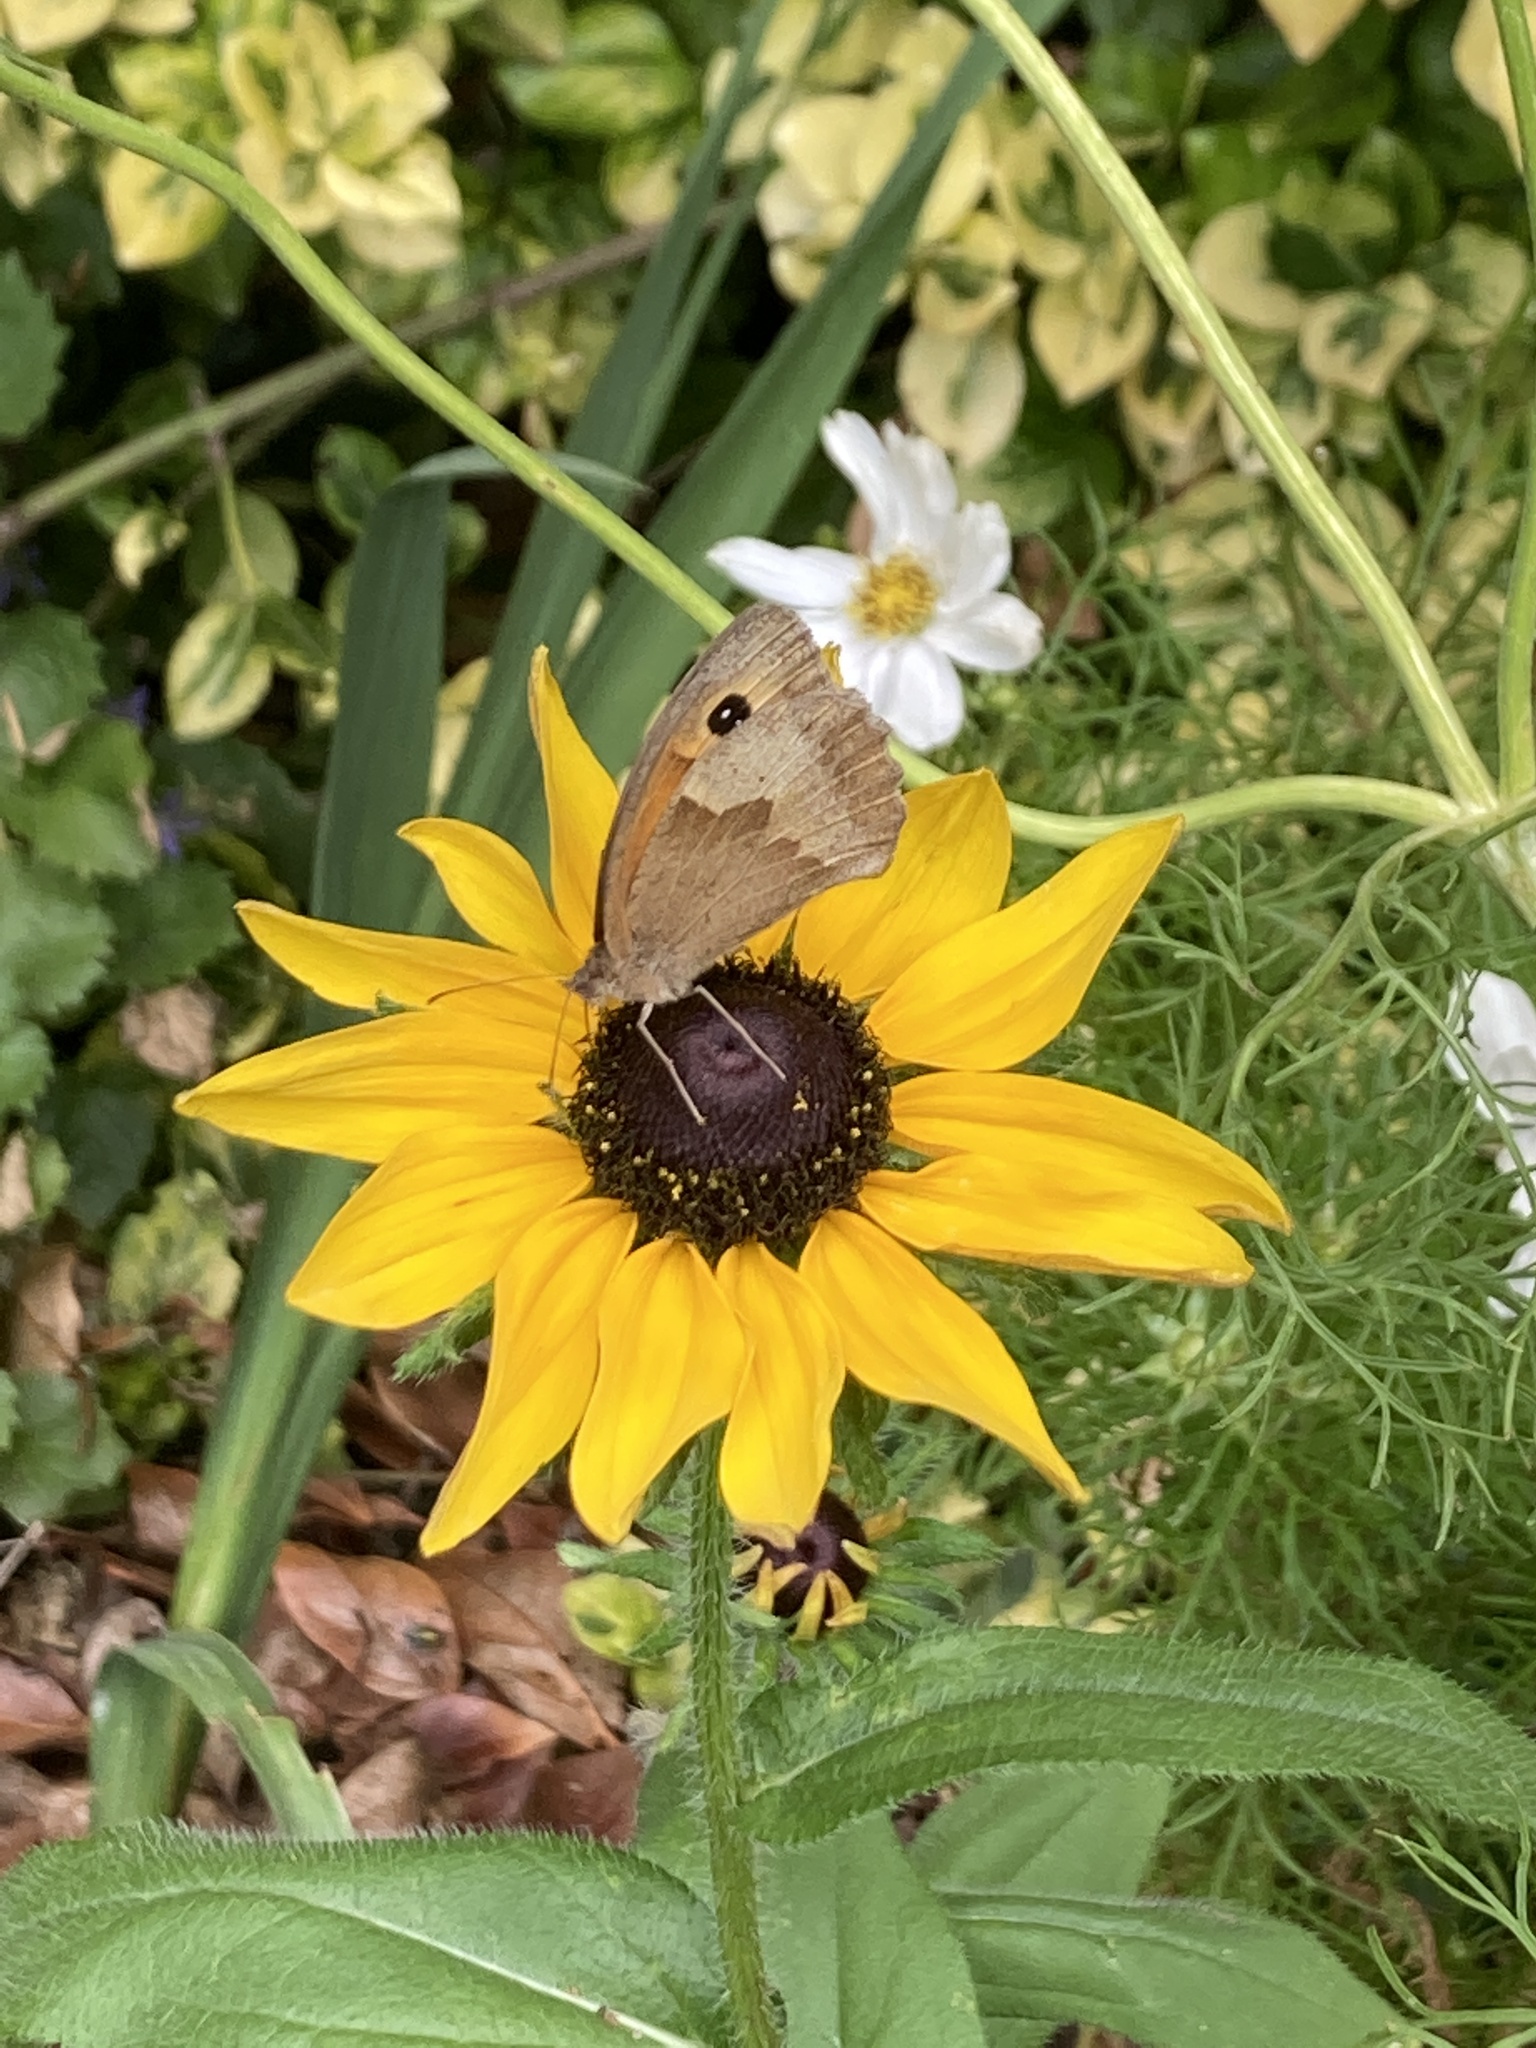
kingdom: Animalia
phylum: Arthropoda
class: Insecta
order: Lepidoptera
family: Nymphalidae
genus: Maniola
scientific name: Maniola jurtina
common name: Meadow brown
